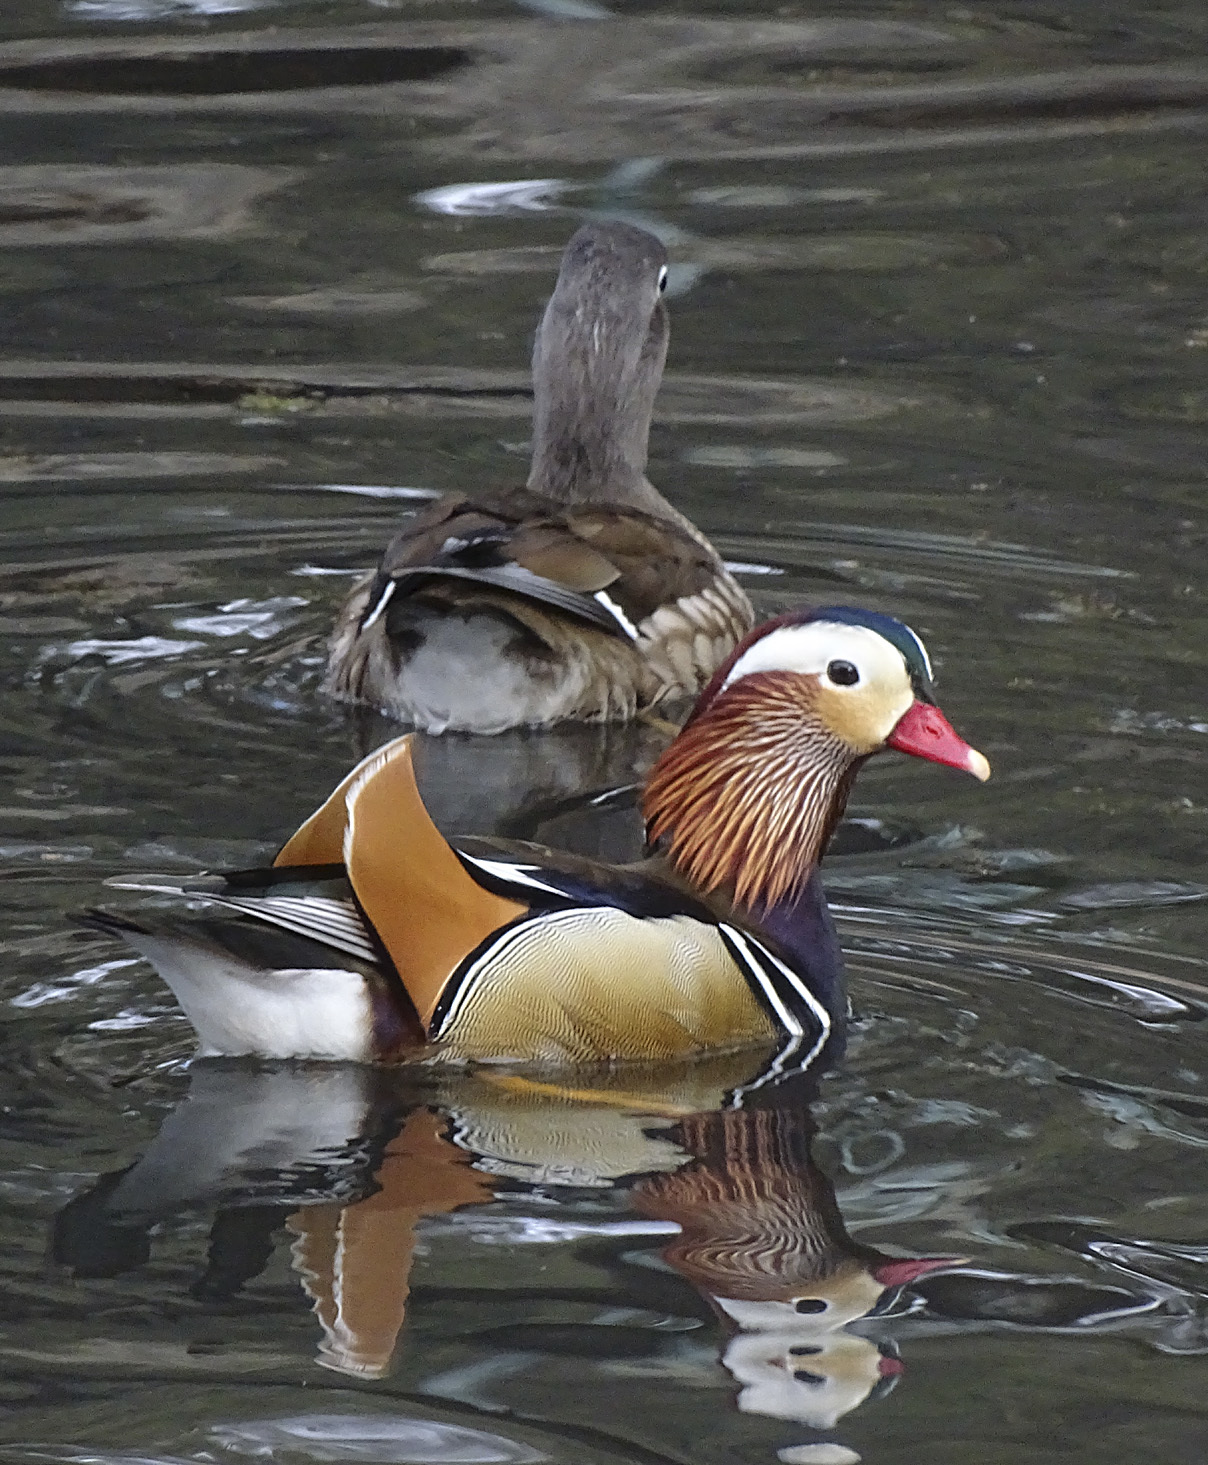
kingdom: Animalia
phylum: Chordata
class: Aves
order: Anseriformes
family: Anatidae
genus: Aix
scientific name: Aix galericulata
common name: Mandarin duck
